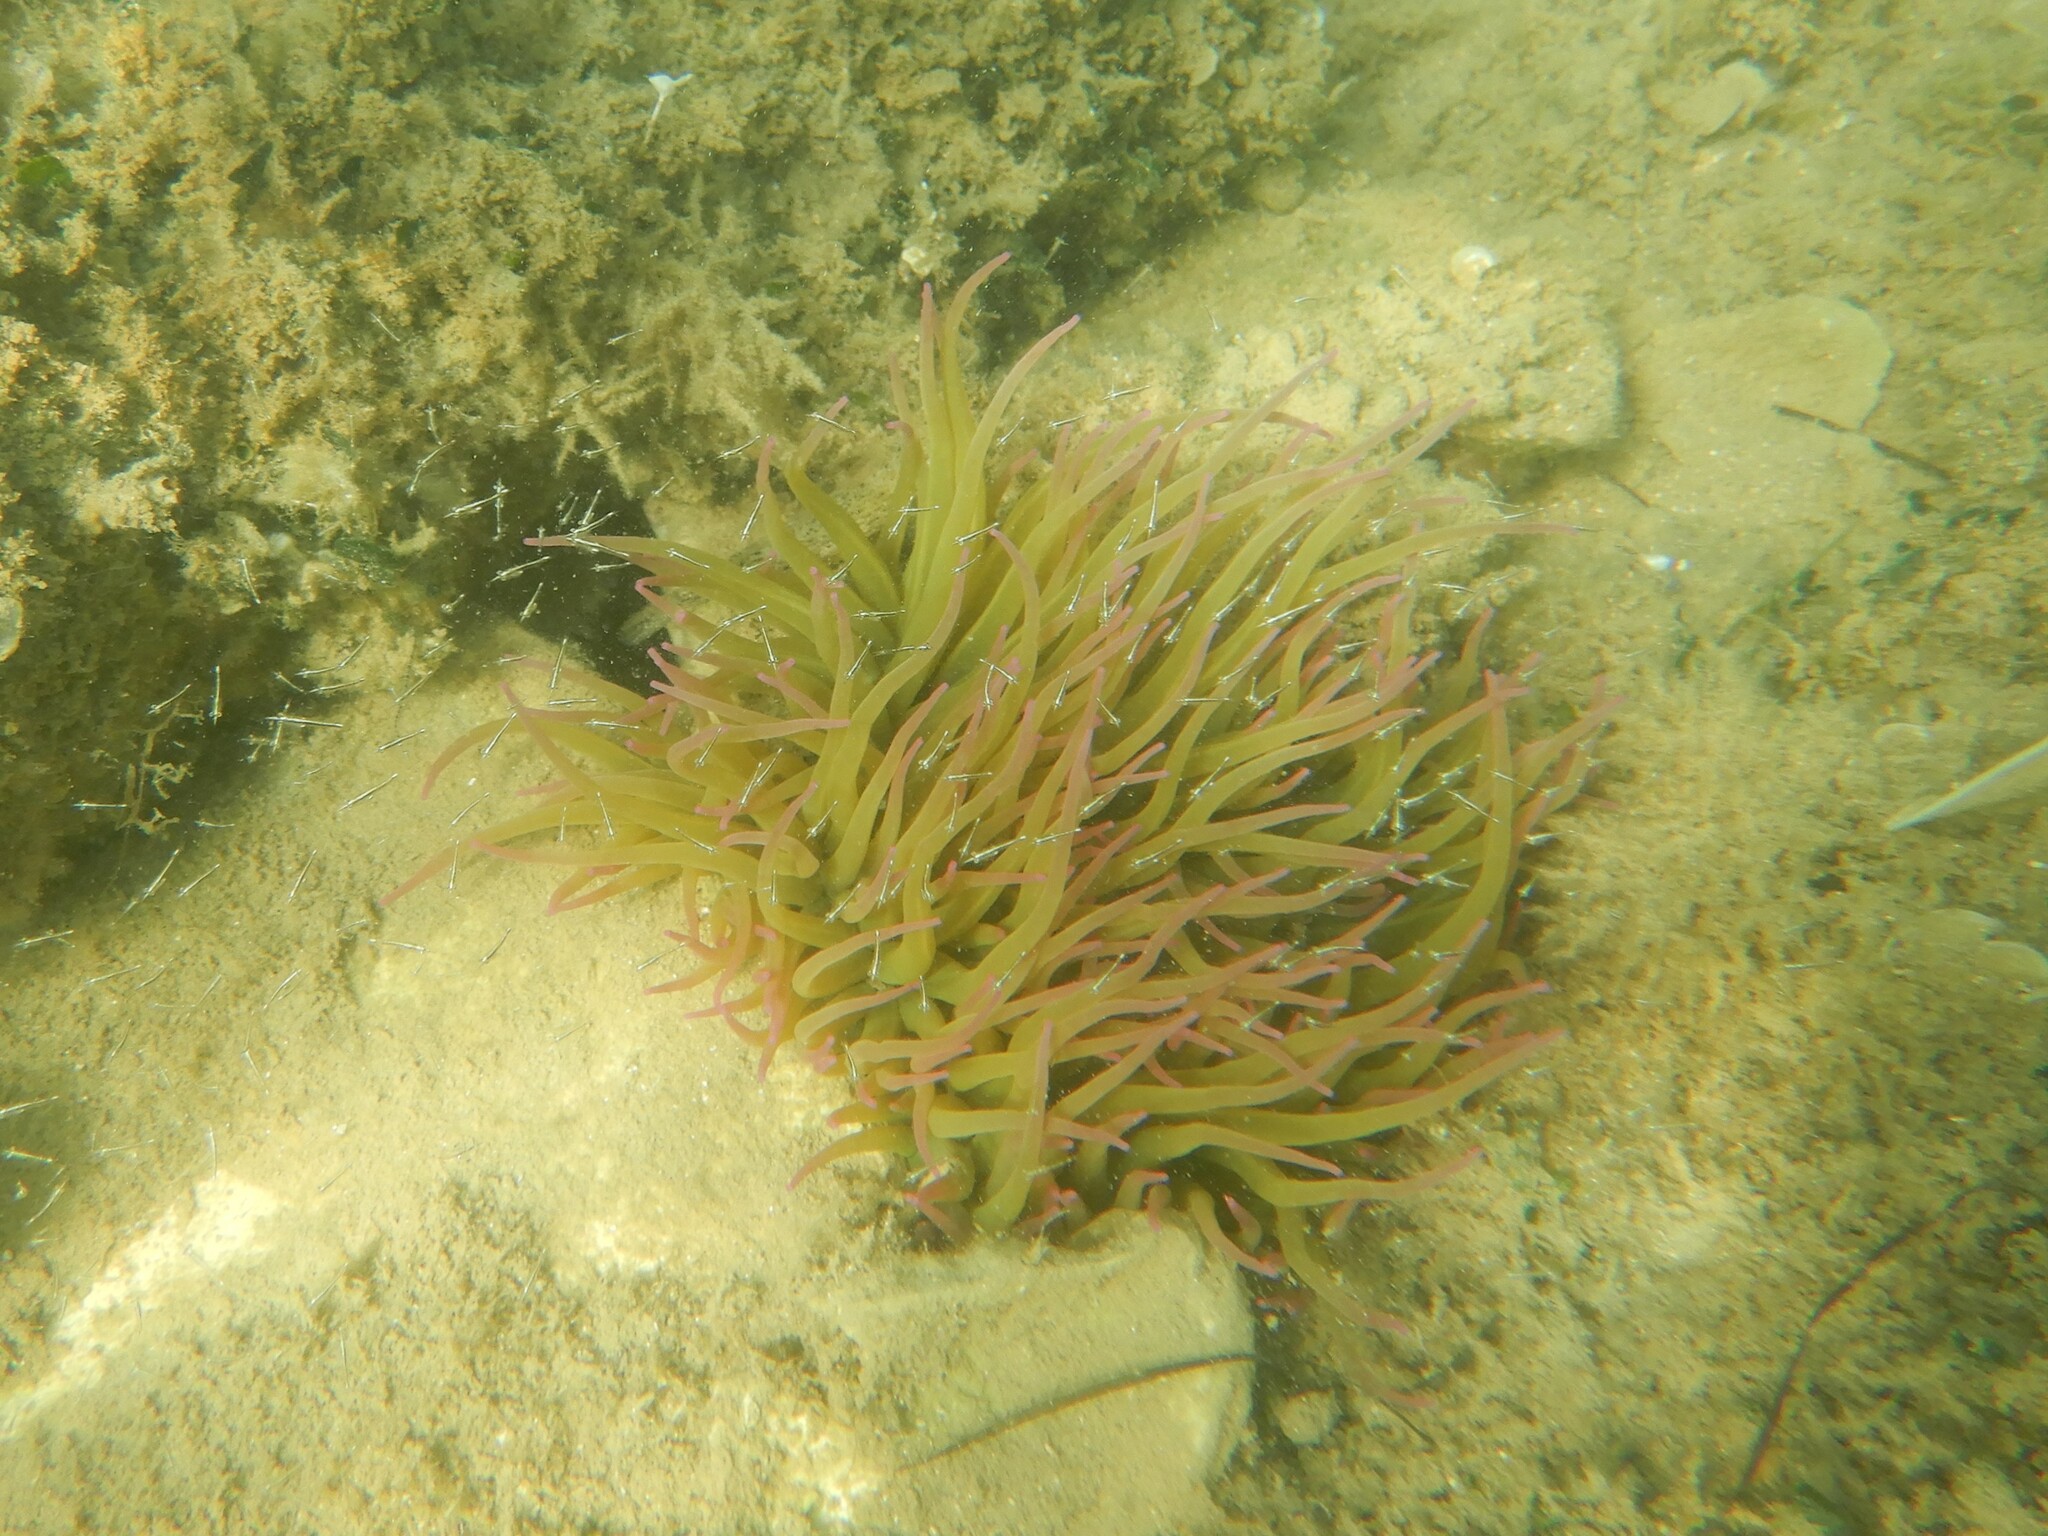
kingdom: Animalia
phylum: Cnidaria
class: Anthozoa
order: Actiniaria
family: Actiniidae
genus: Anemonia
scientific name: Anemonia viridis
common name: Snakelocks anemone
